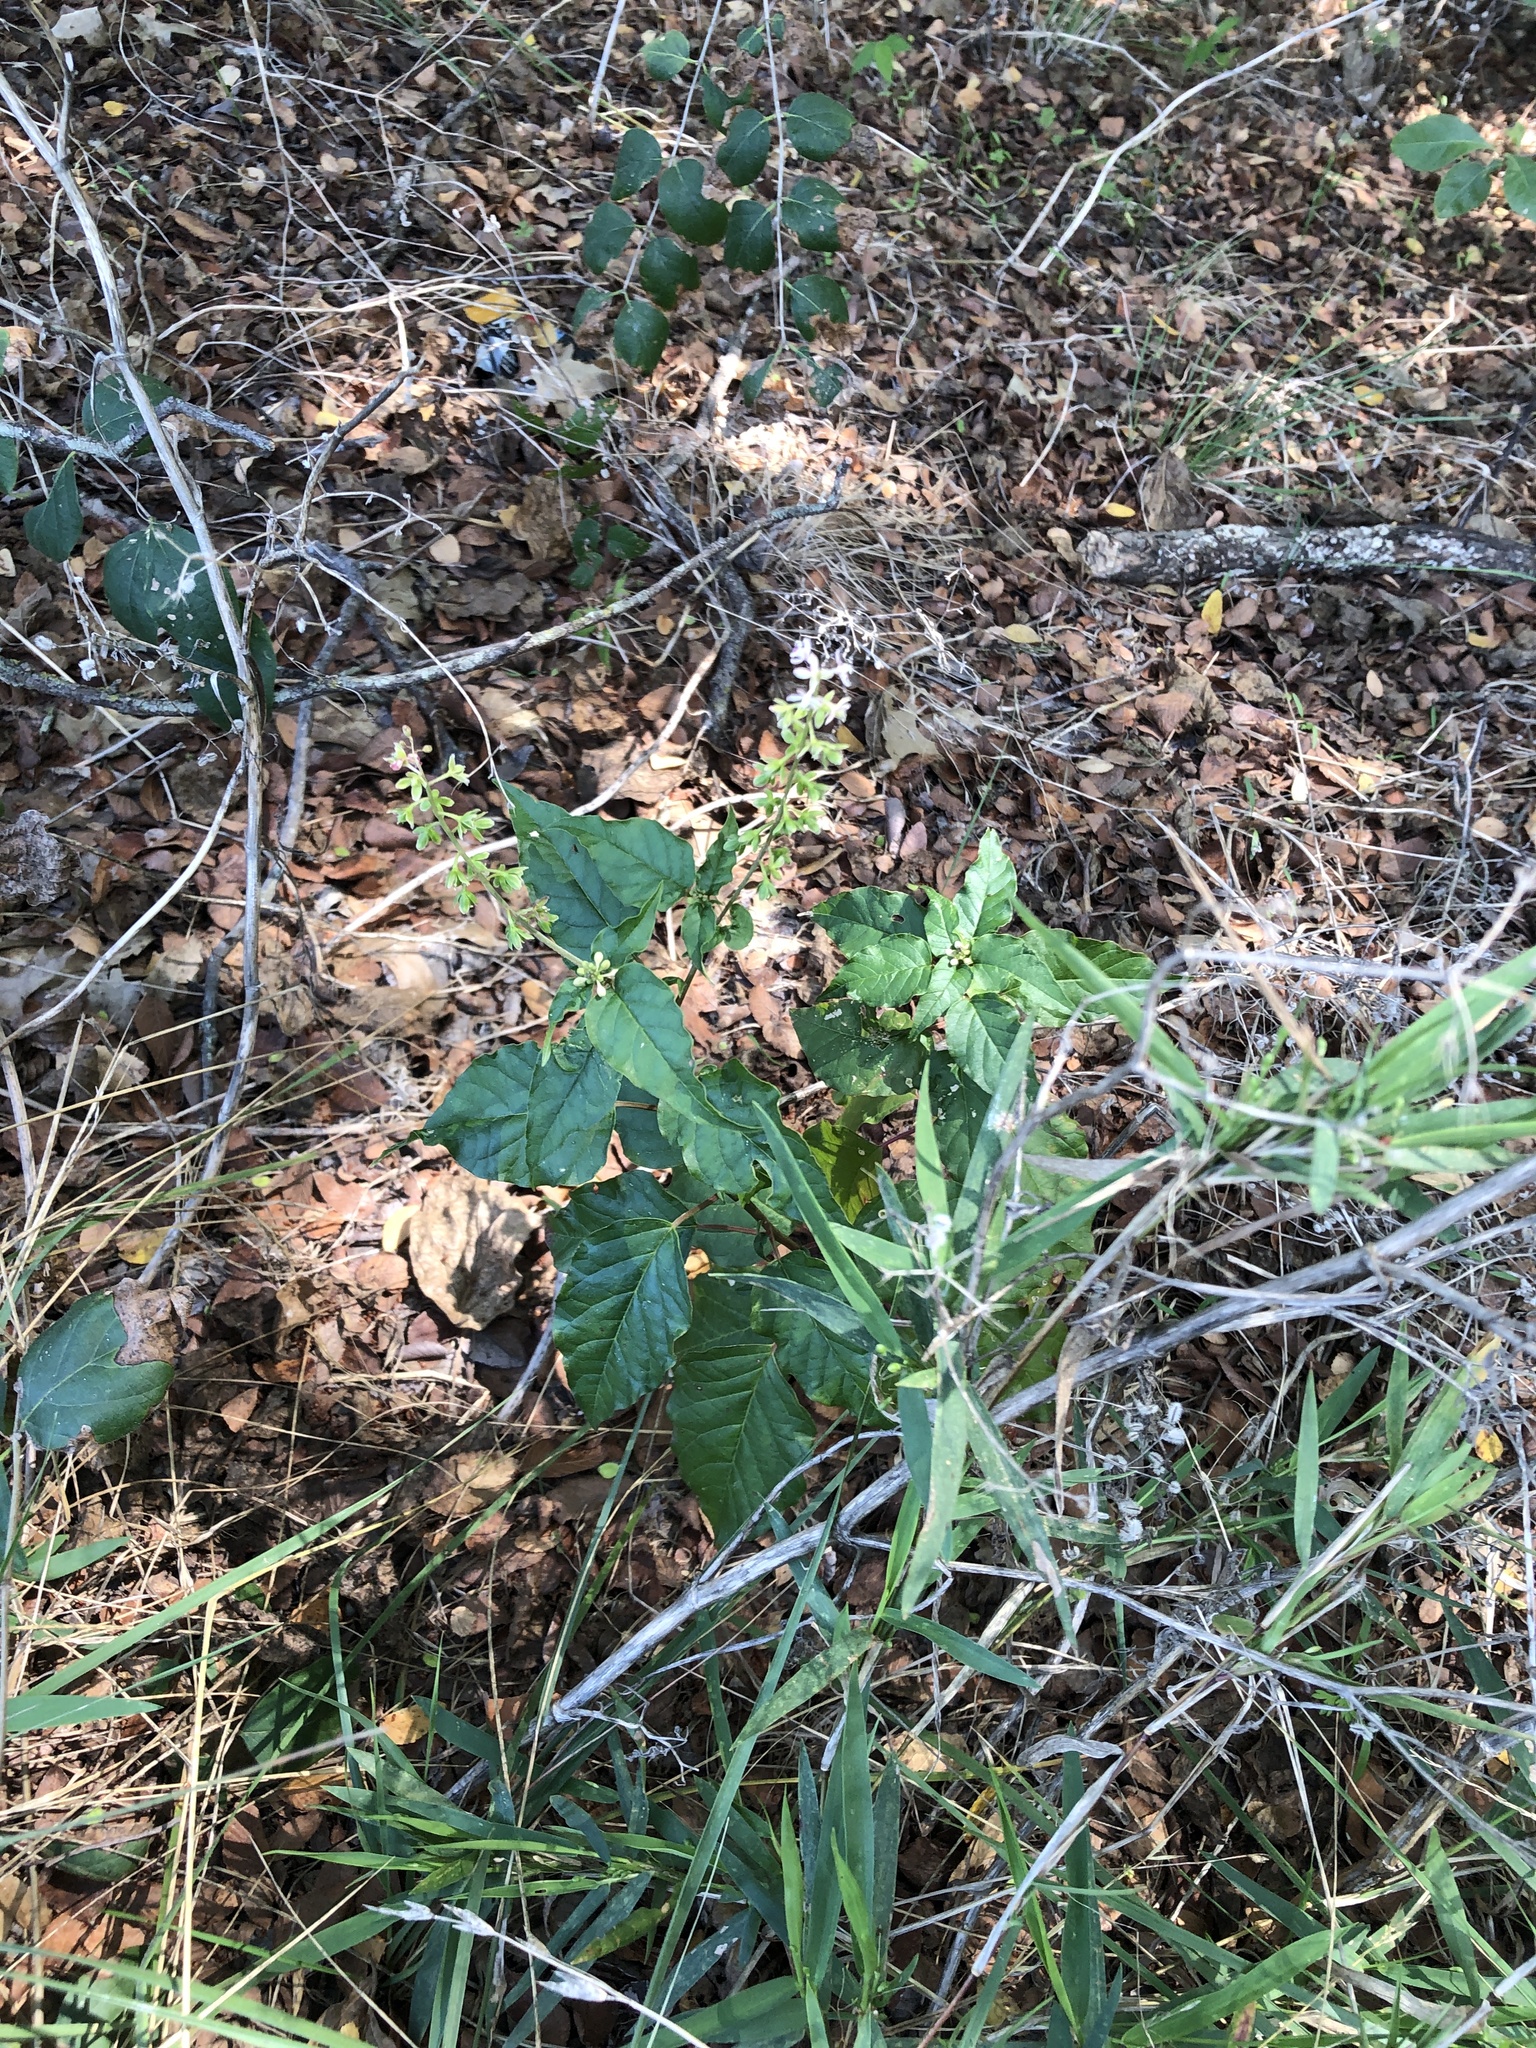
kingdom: Plantae
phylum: Tracheophyta
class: Magnoliopsida
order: Caryophyllales
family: Phytolaccaceae
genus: Rivina
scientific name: Rivina humilis
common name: Rougeplant
